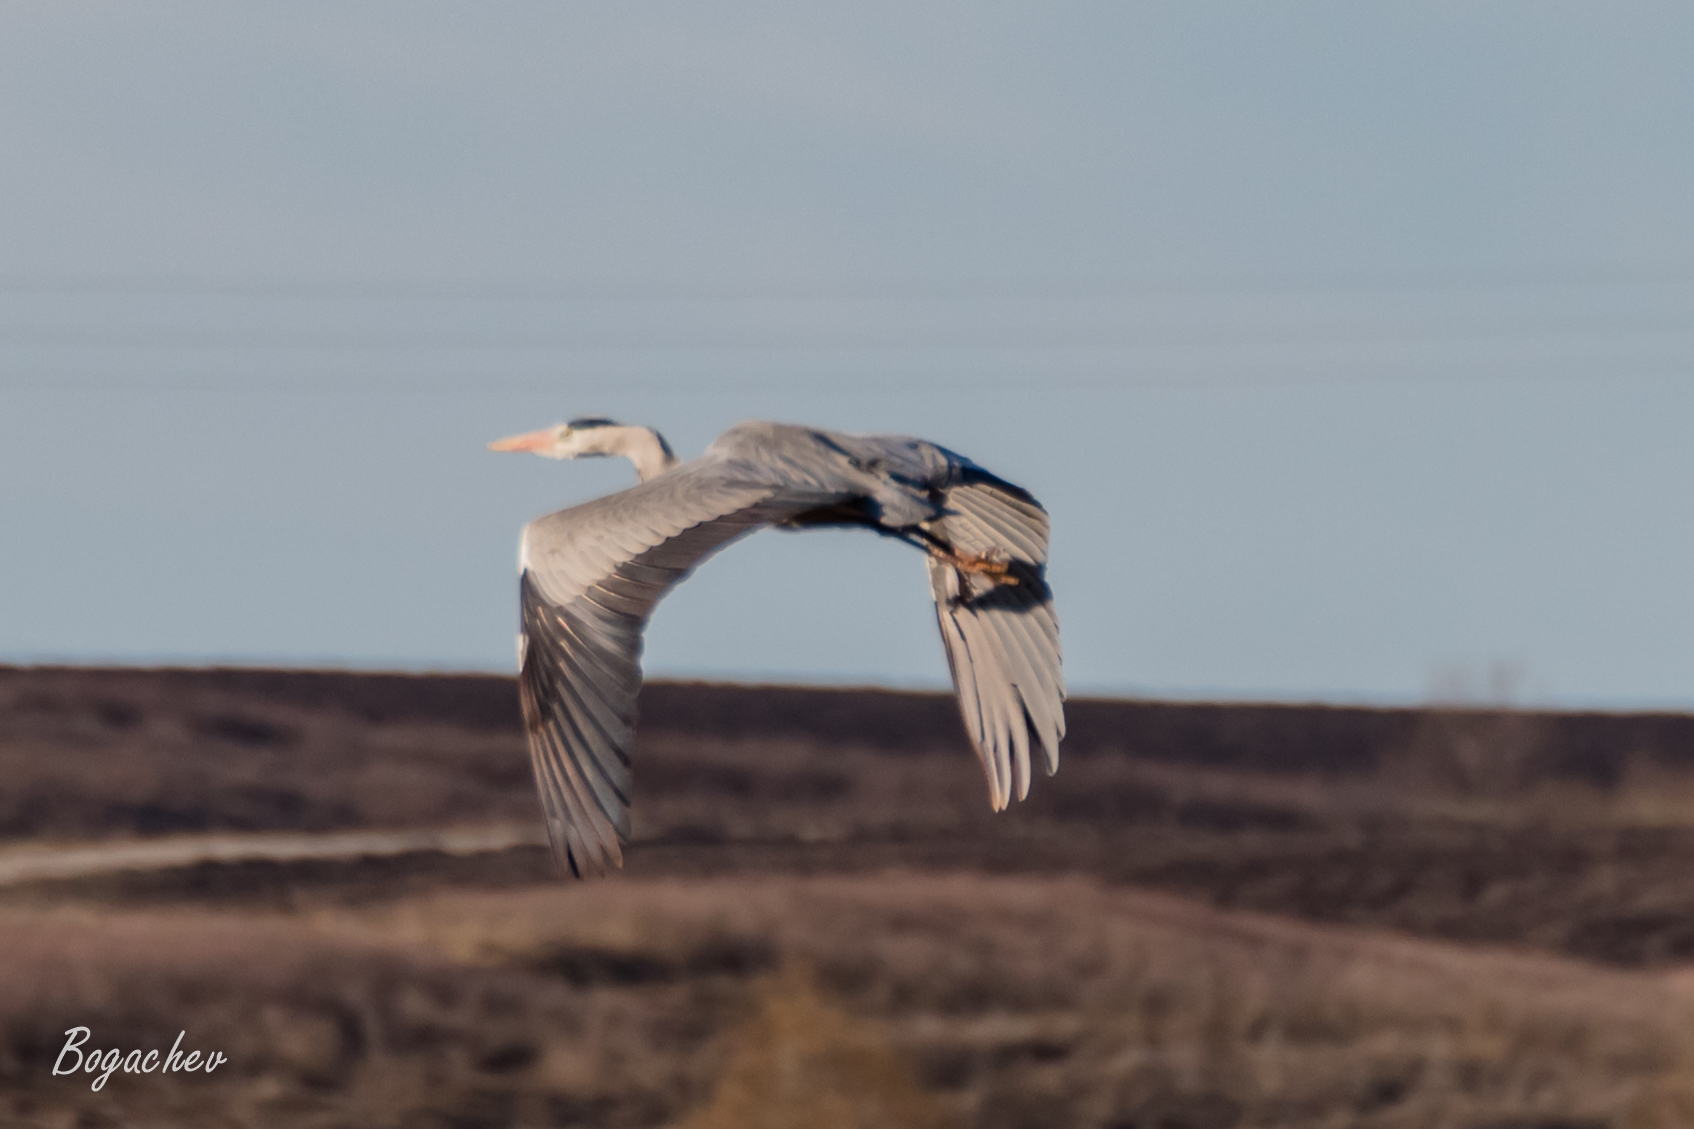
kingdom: Animalia
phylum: Chordata
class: Aves
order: Pelecaniformes
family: Ardeidae
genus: Ardea
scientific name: Ardea cinerea
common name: Grey heron
